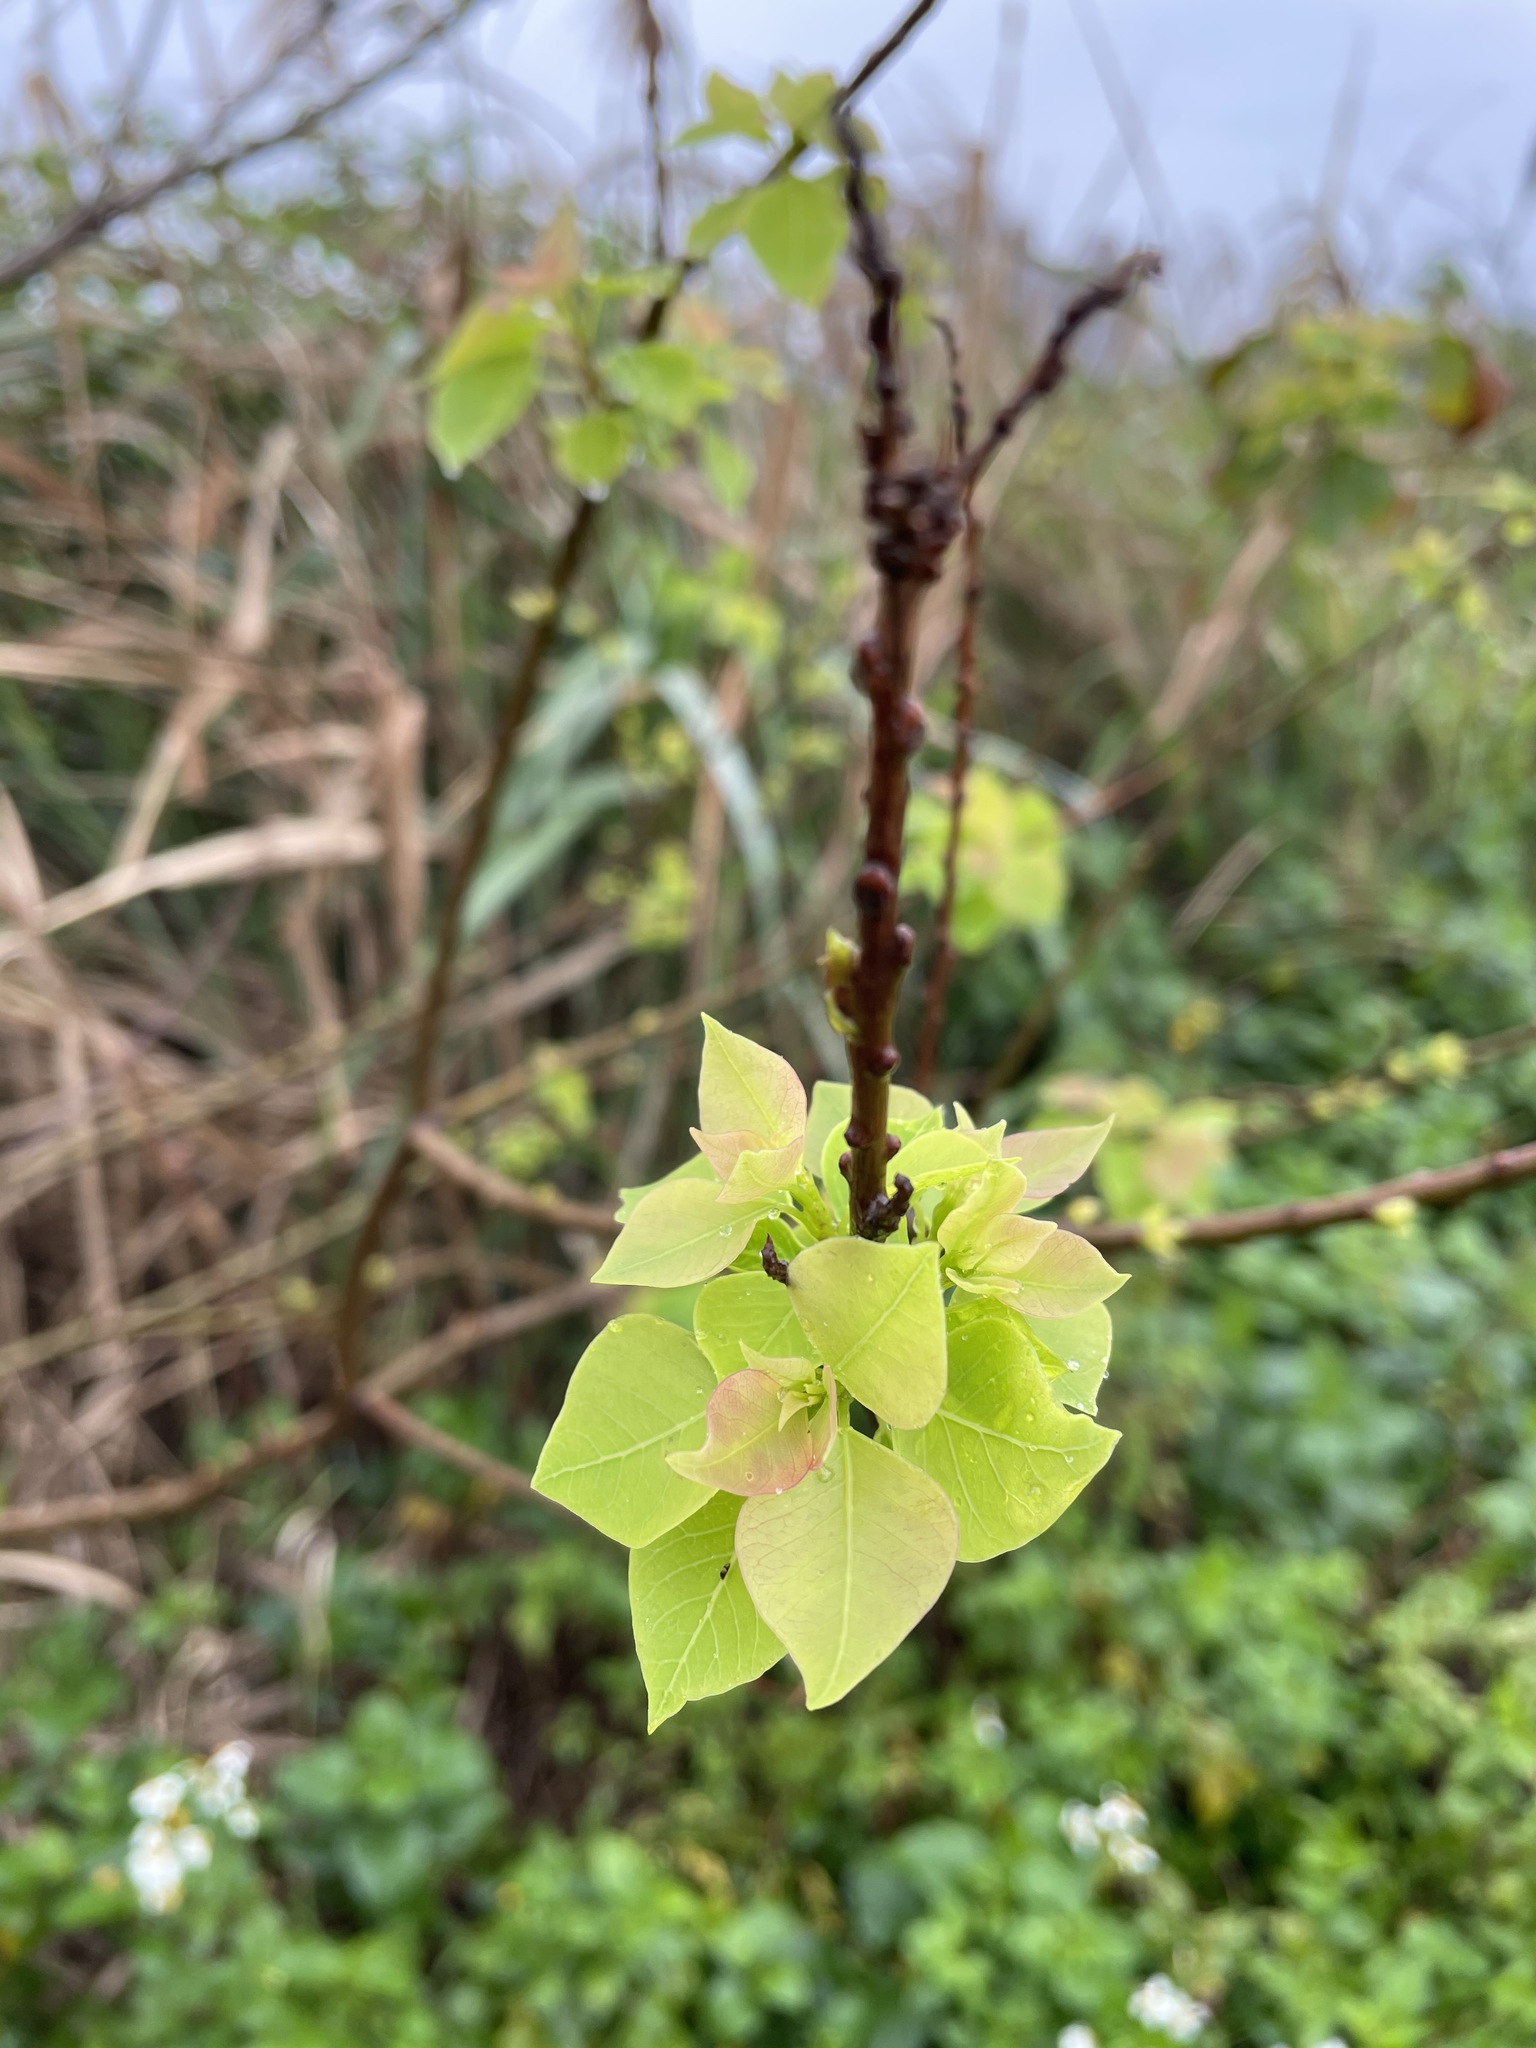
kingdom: Plantae
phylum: Tracheophyta
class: Magnoliopsida
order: Malpighiales
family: Euphorbiaceae
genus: Triadica
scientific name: Triadica sebifera
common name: Chinese tallow
